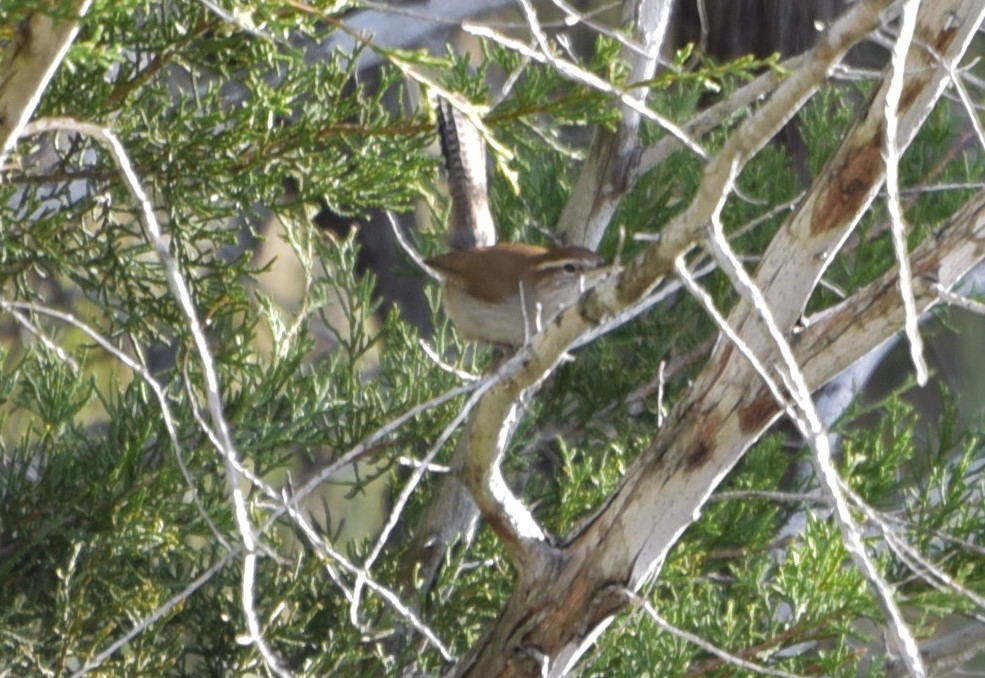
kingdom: Animalia
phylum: Chordata
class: Aves
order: Passeriformes
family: Troglodytidae
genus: Thryomanes
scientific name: Thryomanes bewickii
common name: Bewick's wren
